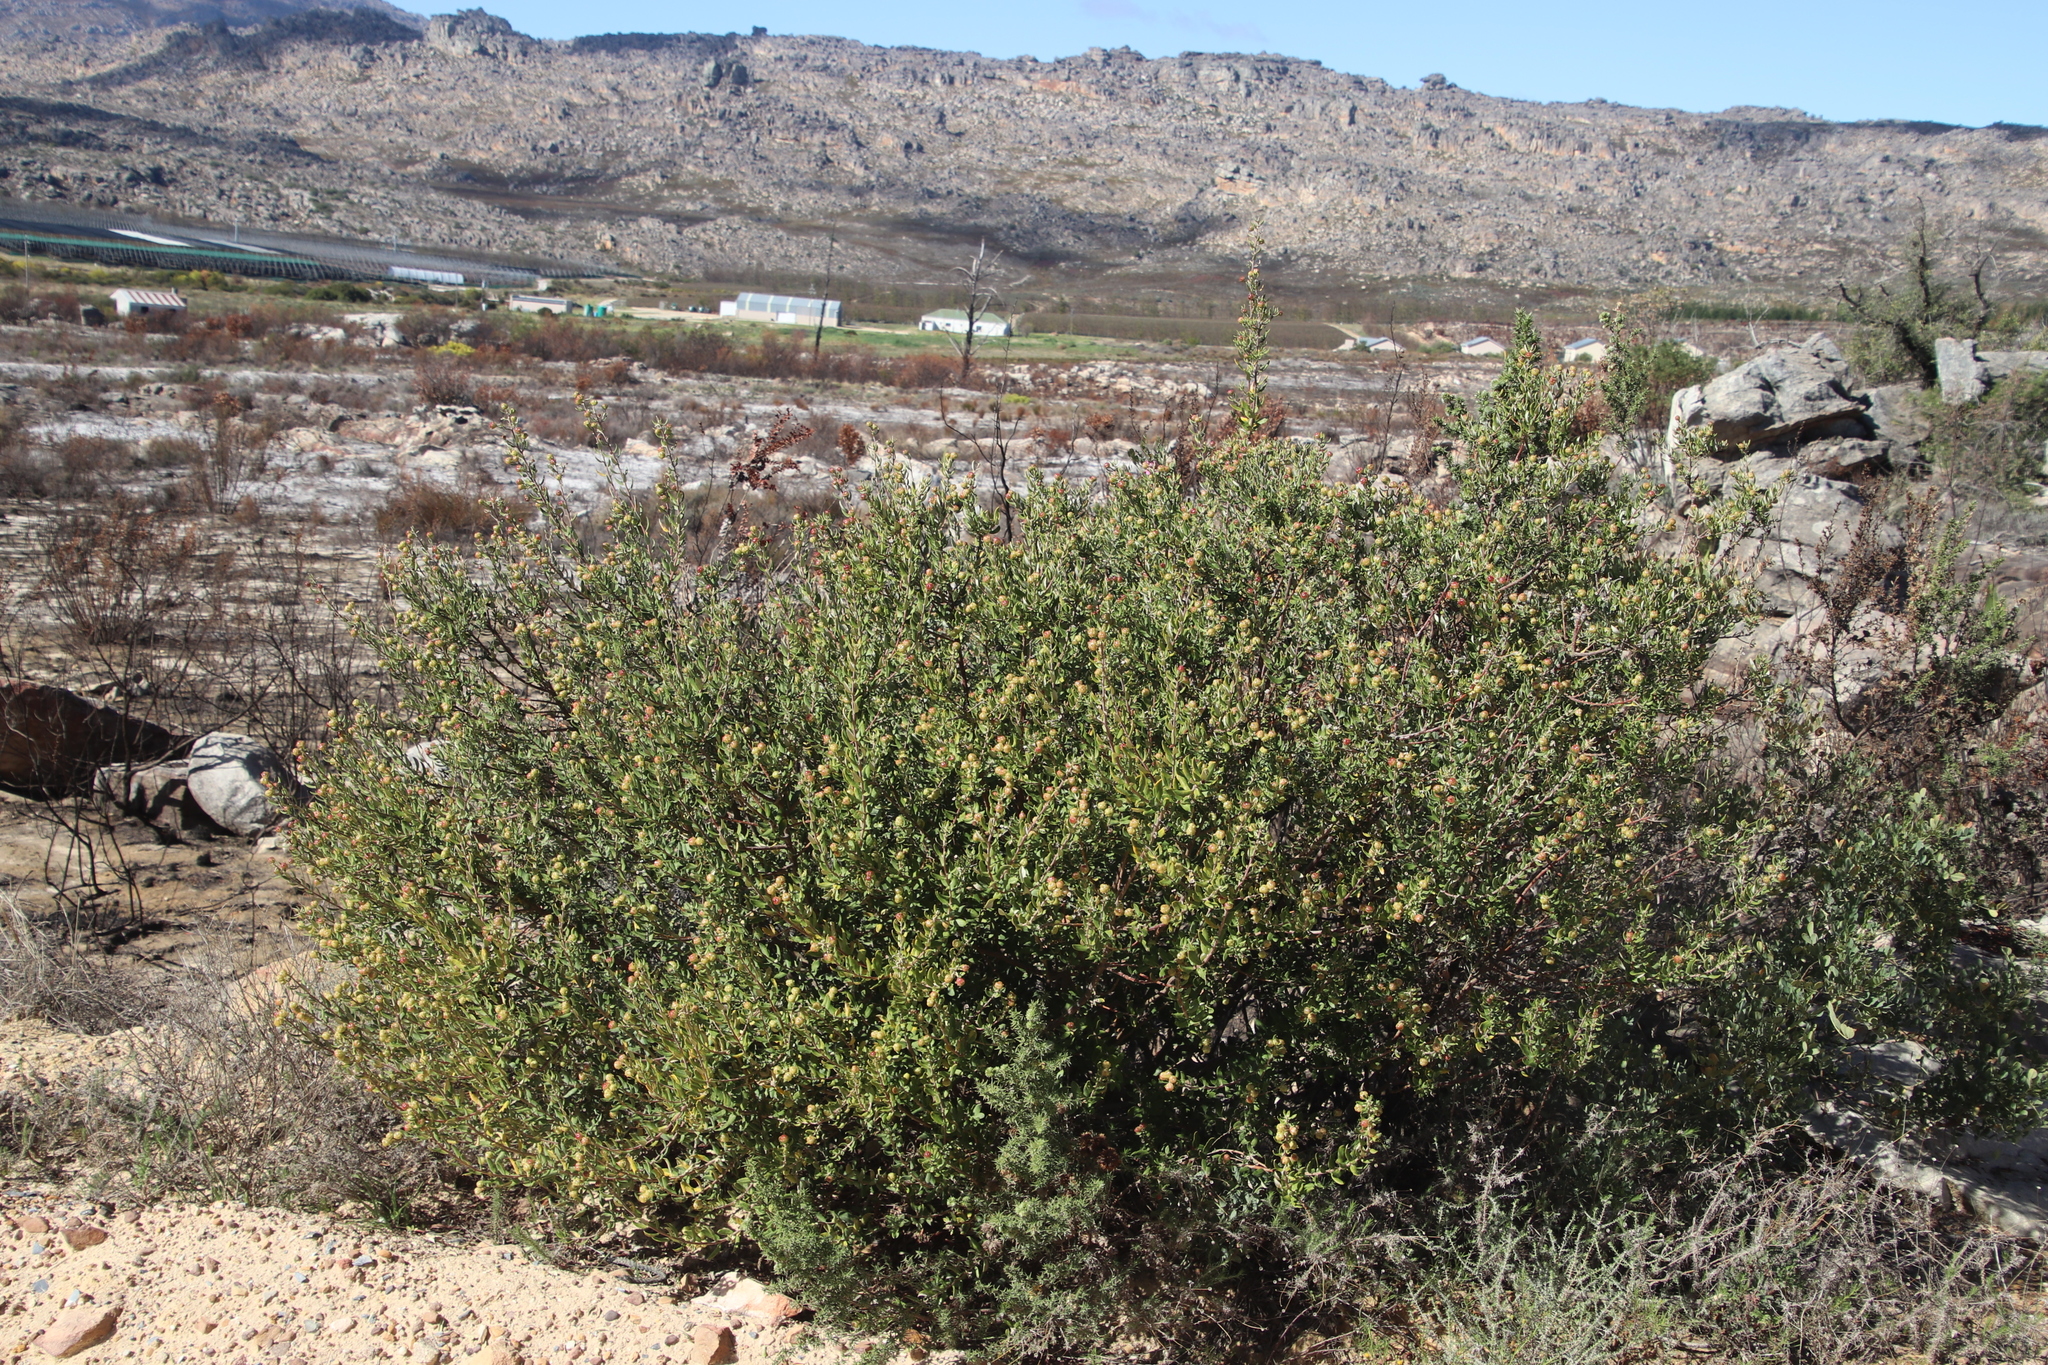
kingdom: Plantae
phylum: Tracheophyta
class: Magnoliopsida
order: Rosales
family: Rhamnaceae
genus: Phylica
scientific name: Phylica oleifolia
